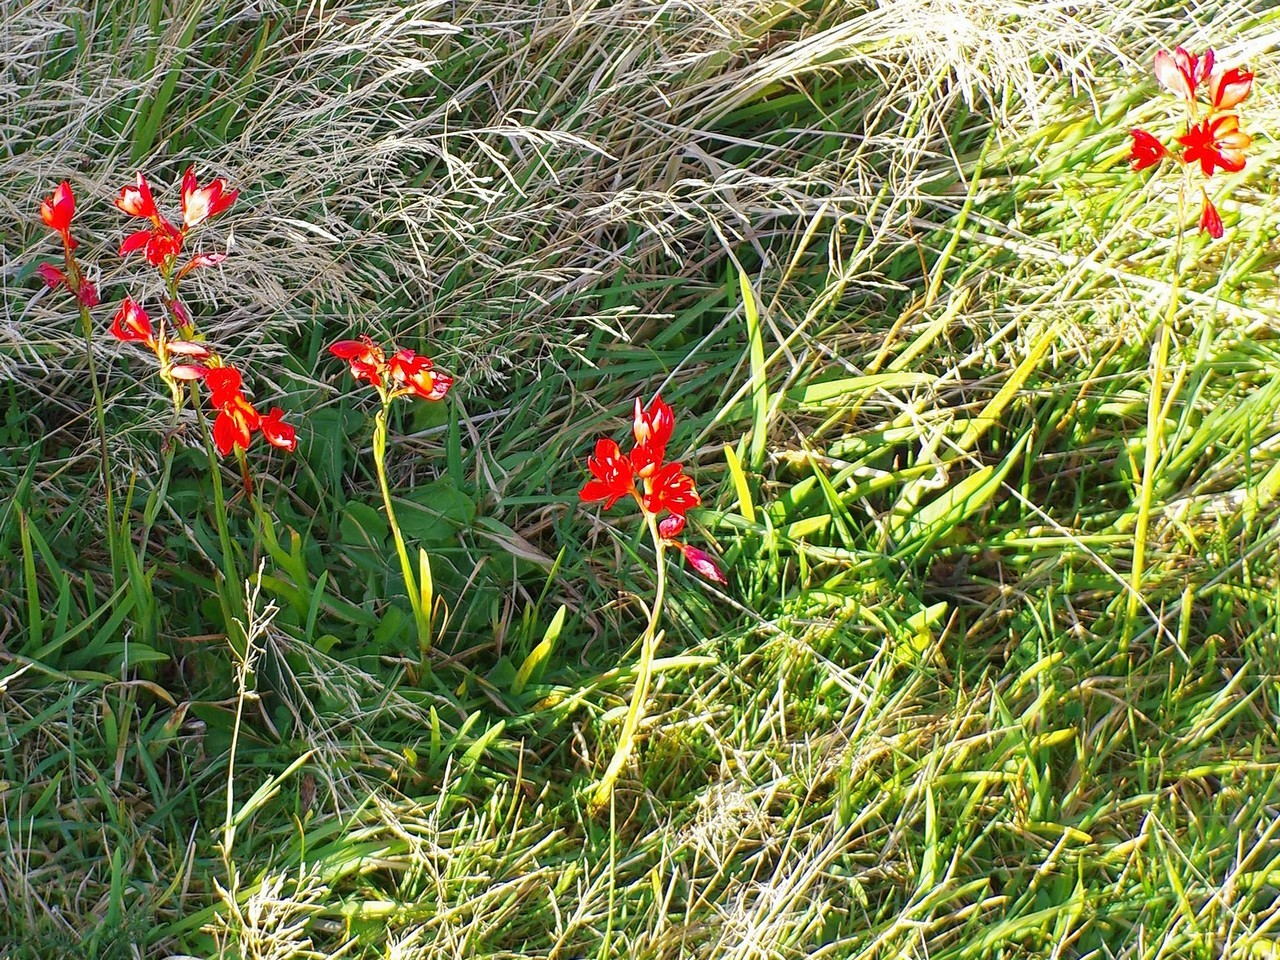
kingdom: Plantae
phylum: Tracheophyta
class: Liliopsida
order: Asparagales
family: Iridaceae
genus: Hesperantha
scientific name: Hesperantha coccinea
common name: River-lily
